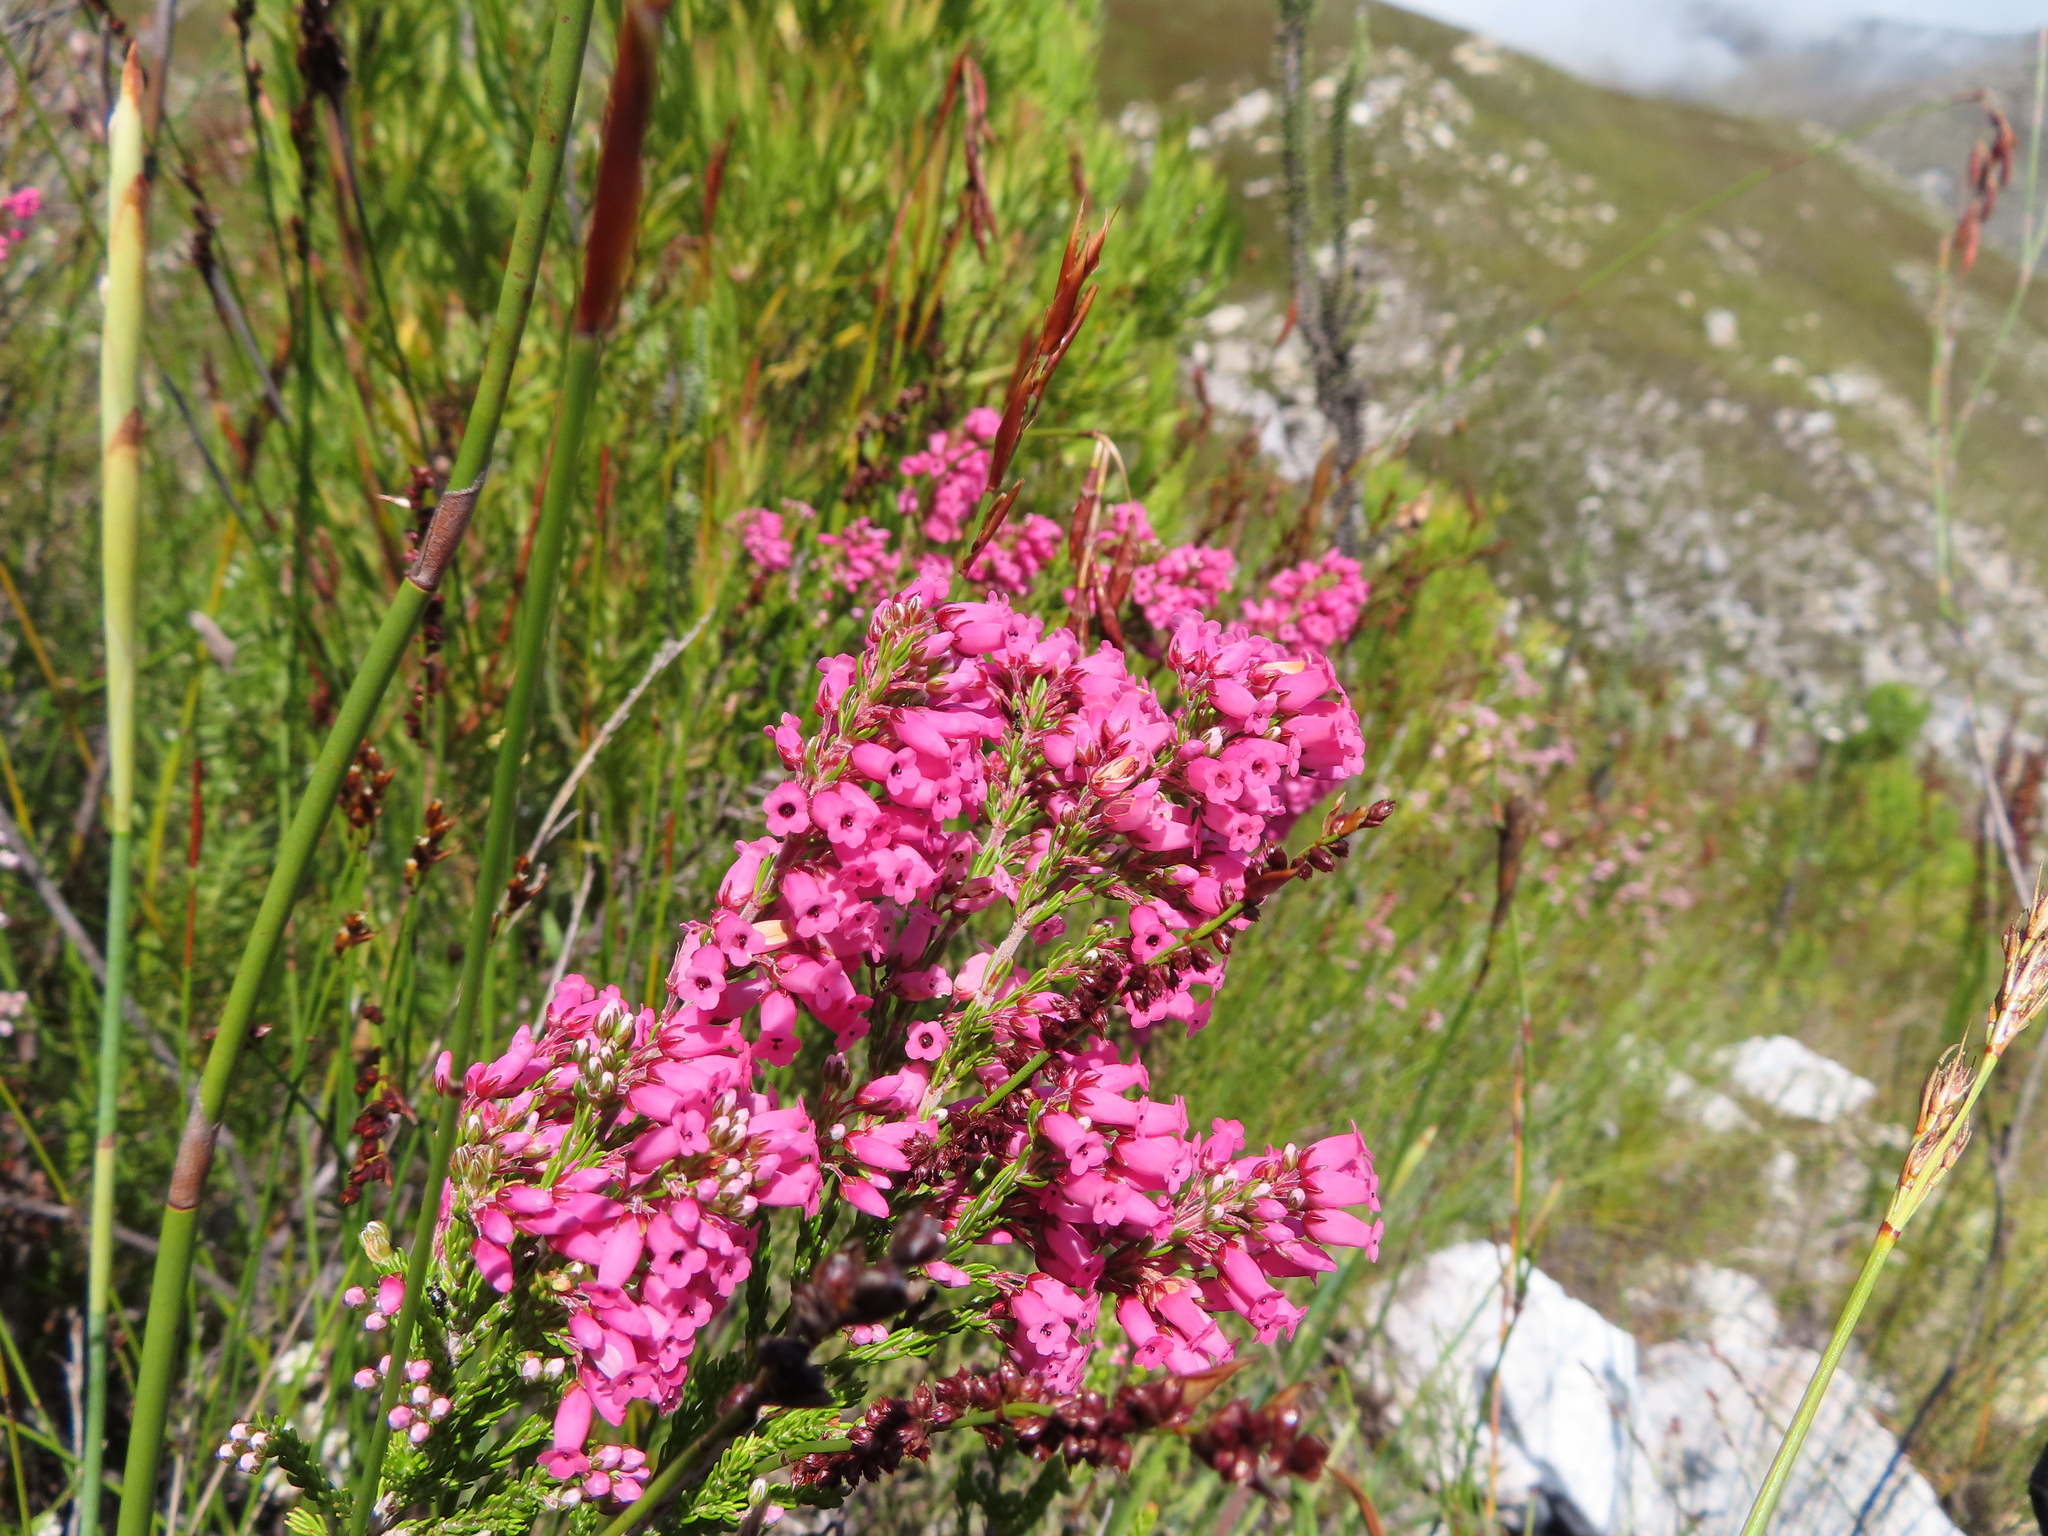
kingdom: Plantae
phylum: Tracheophyta
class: Magnoliopsida
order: Ericales
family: Ericaceae
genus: Erica
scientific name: Erica tenella
